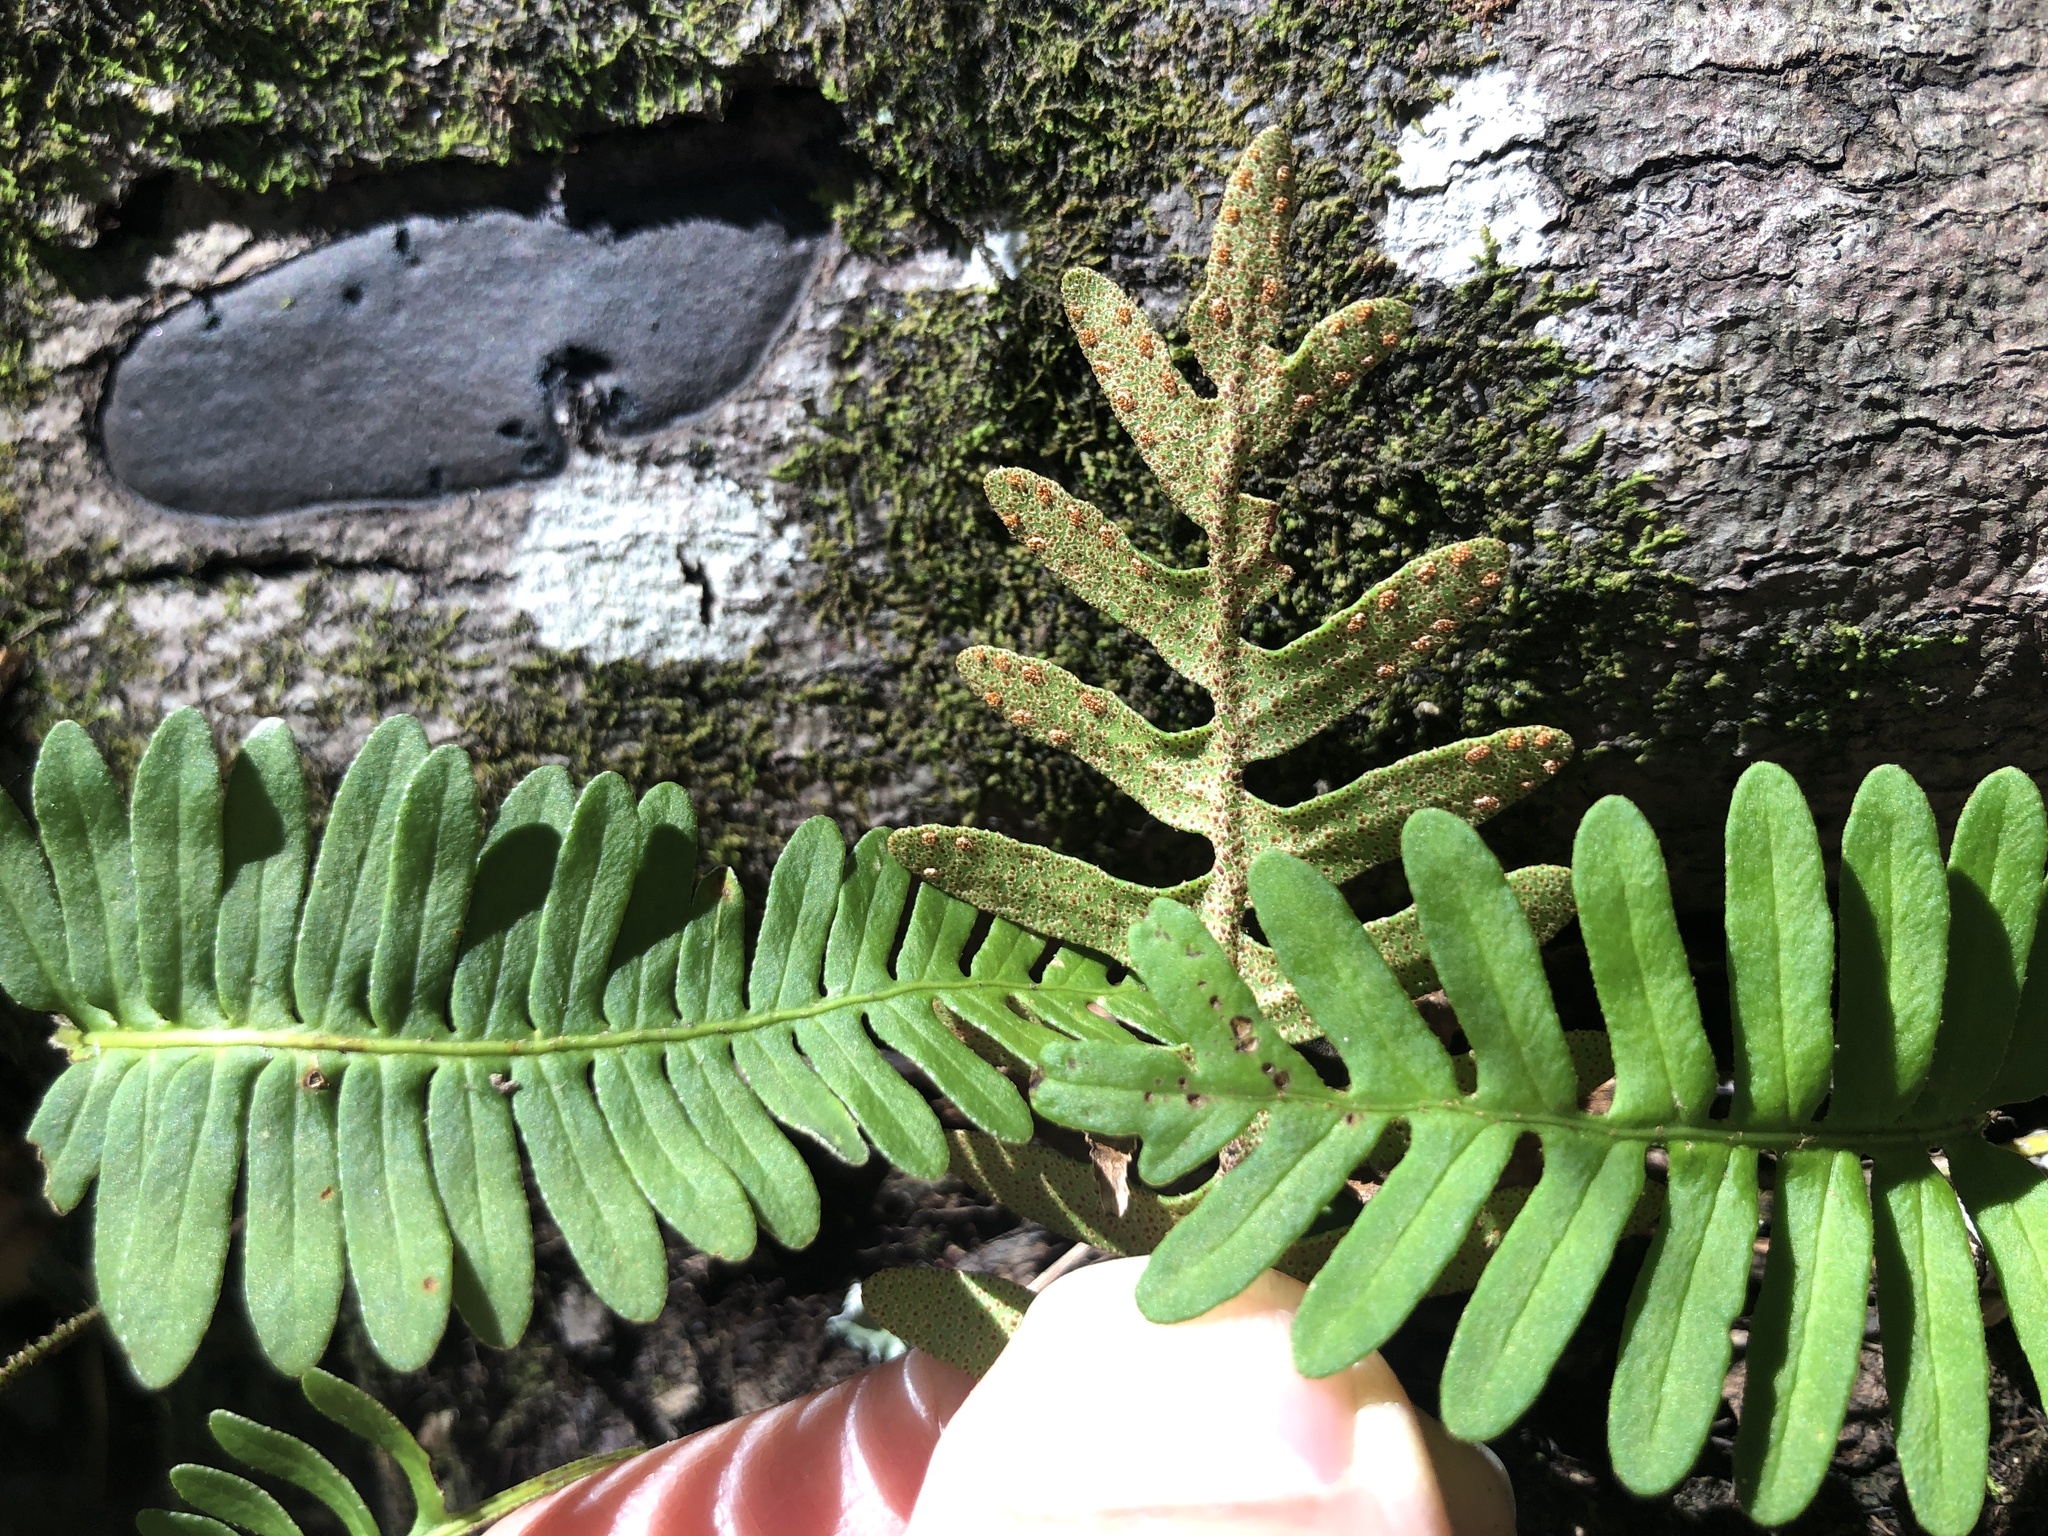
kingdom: Plantae
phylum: Tracheophyta
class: Polypodiopsida
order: Polypodiales
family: Polypodiaceae
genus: Pleopeltis
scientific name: Pleopeltis michauxiana
